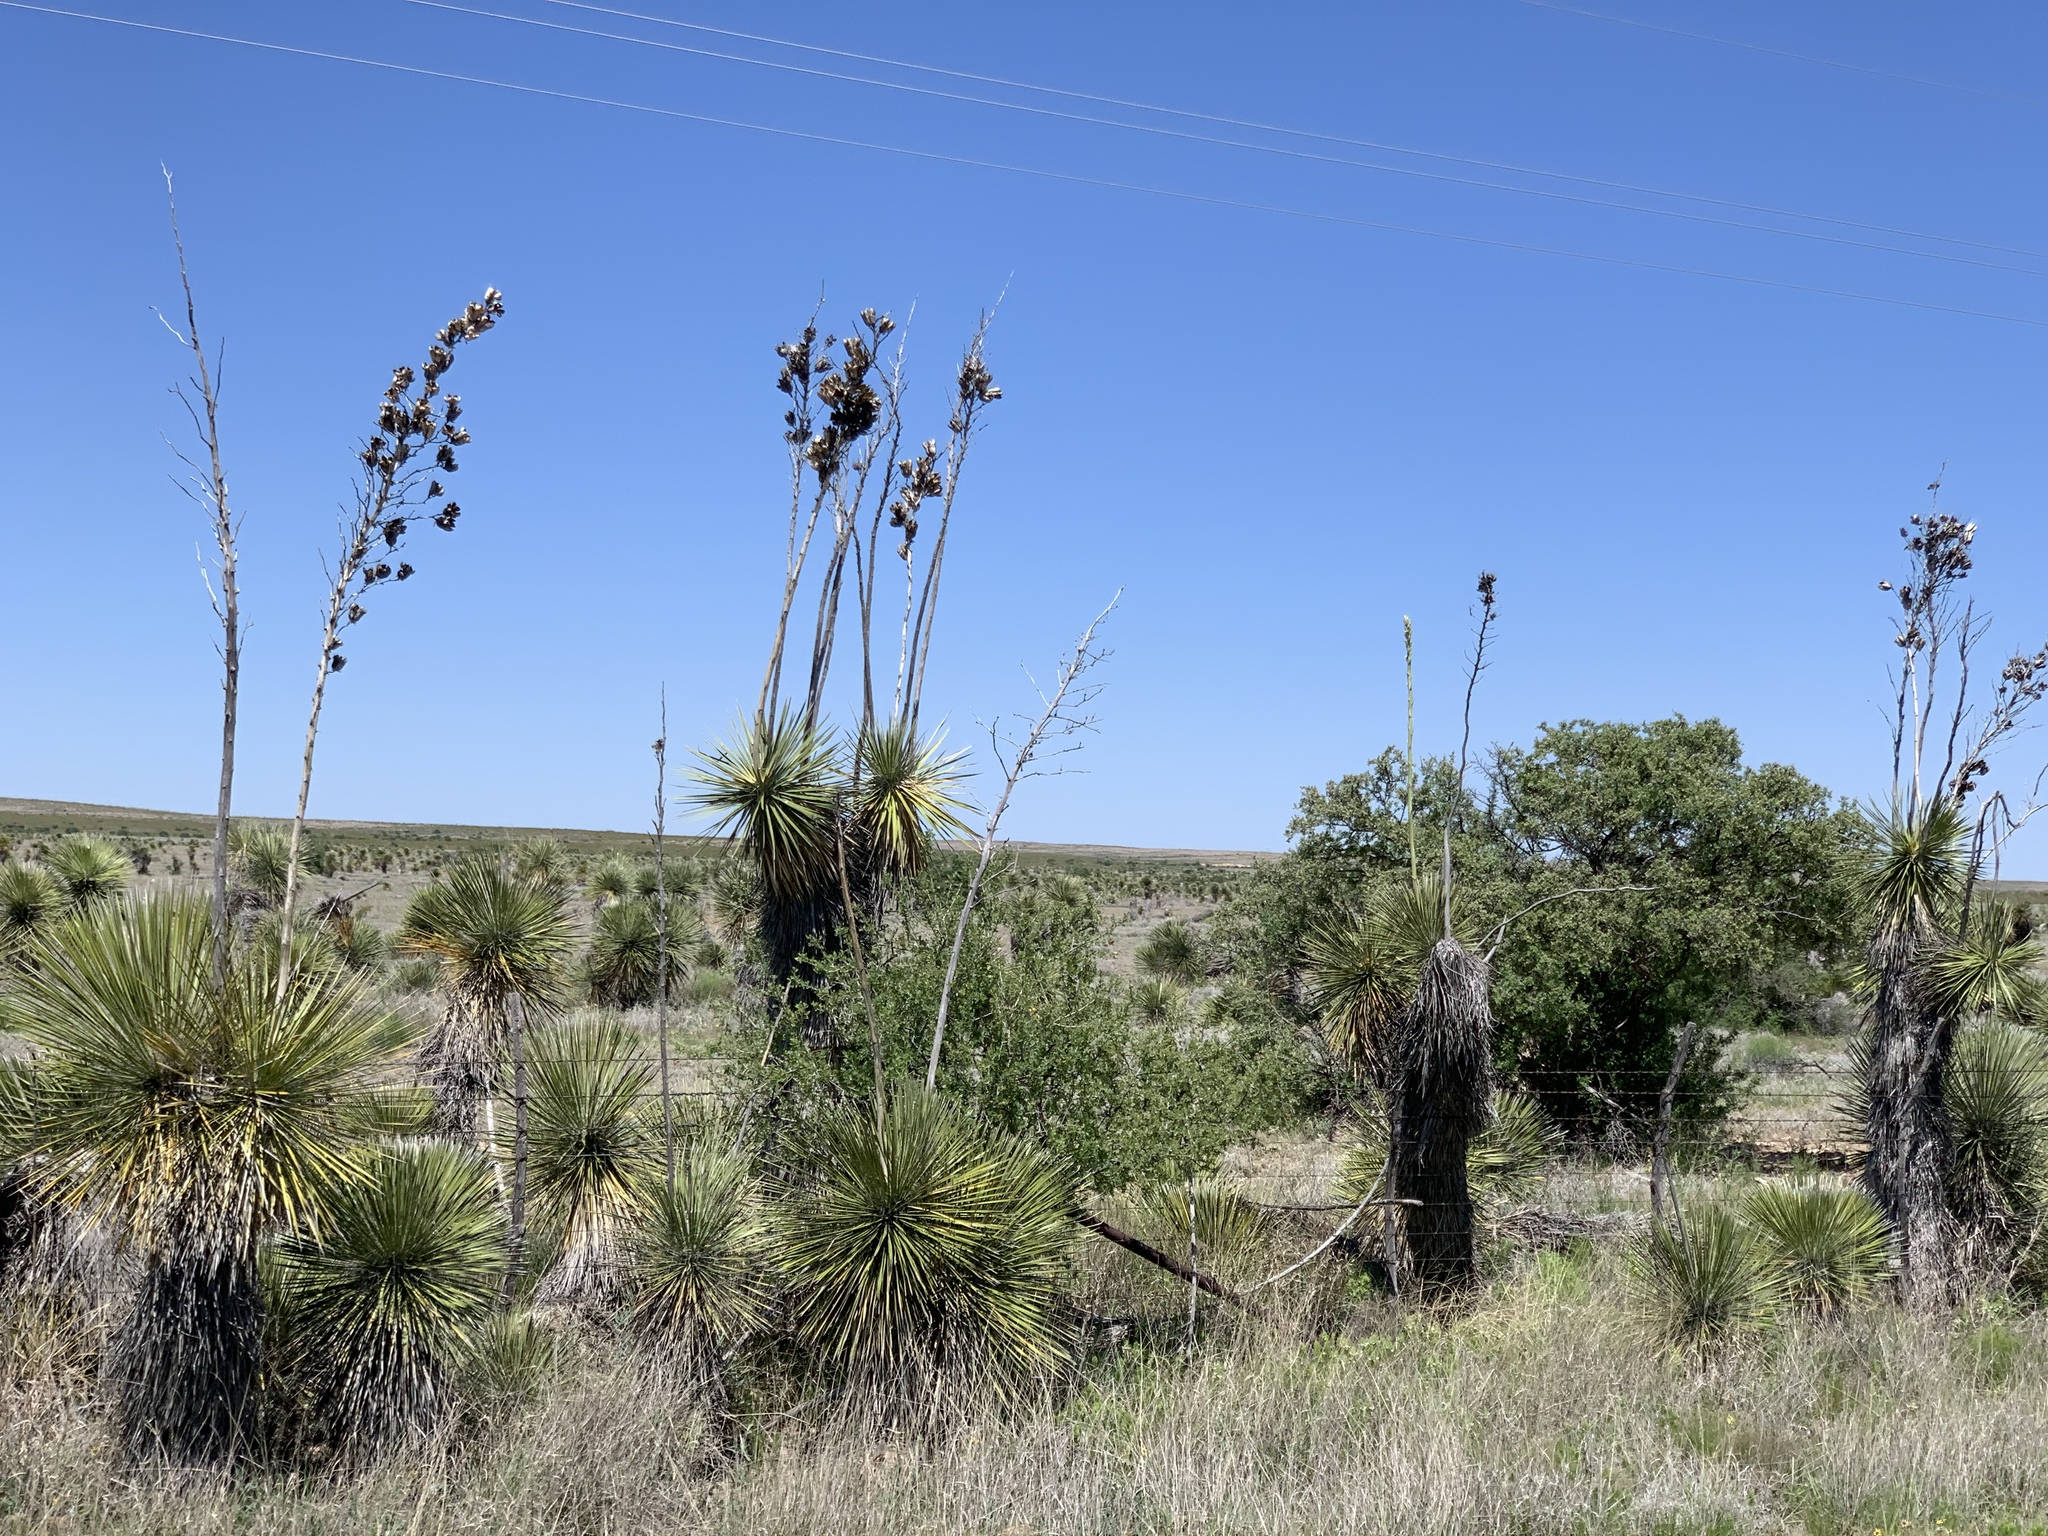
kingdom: Plantae
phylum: Tracheophyta
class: Liliopsida
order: Asparagales
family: Asparagaceae
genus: Yucca
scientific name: Yucca elata
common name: Palmella
